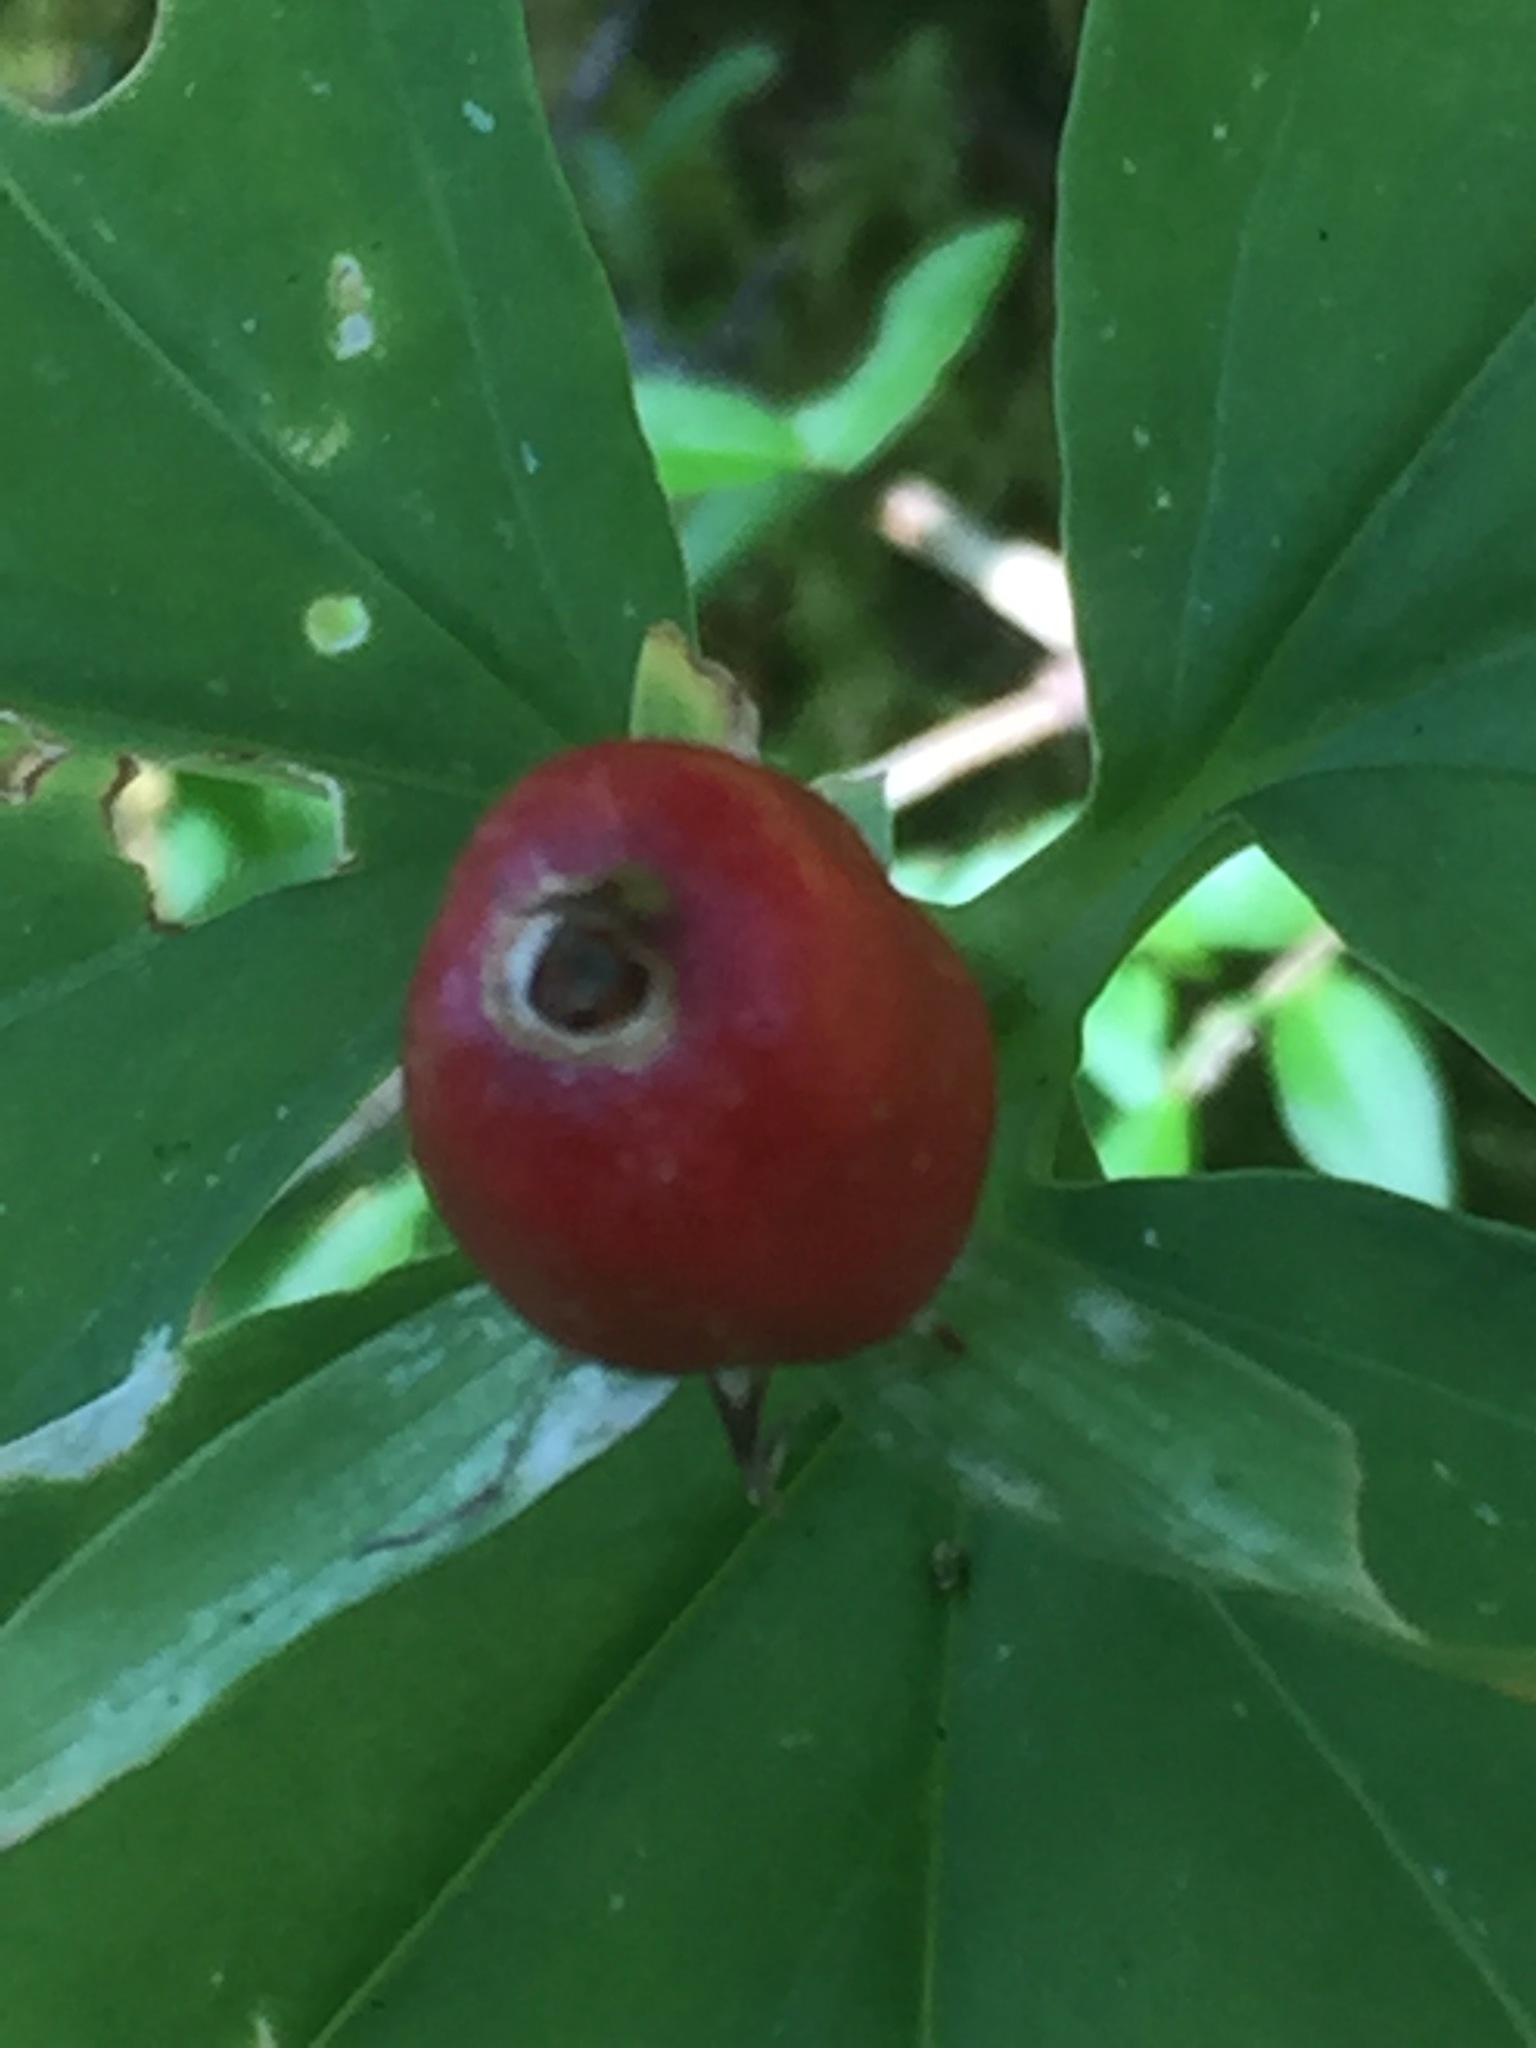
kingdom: Plantae
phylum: Tracheophyta
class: Liliopsida
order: Liliales
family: Melanthiaceae
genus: Trillium
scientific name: Trillium undulatum
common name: Paint trillium
